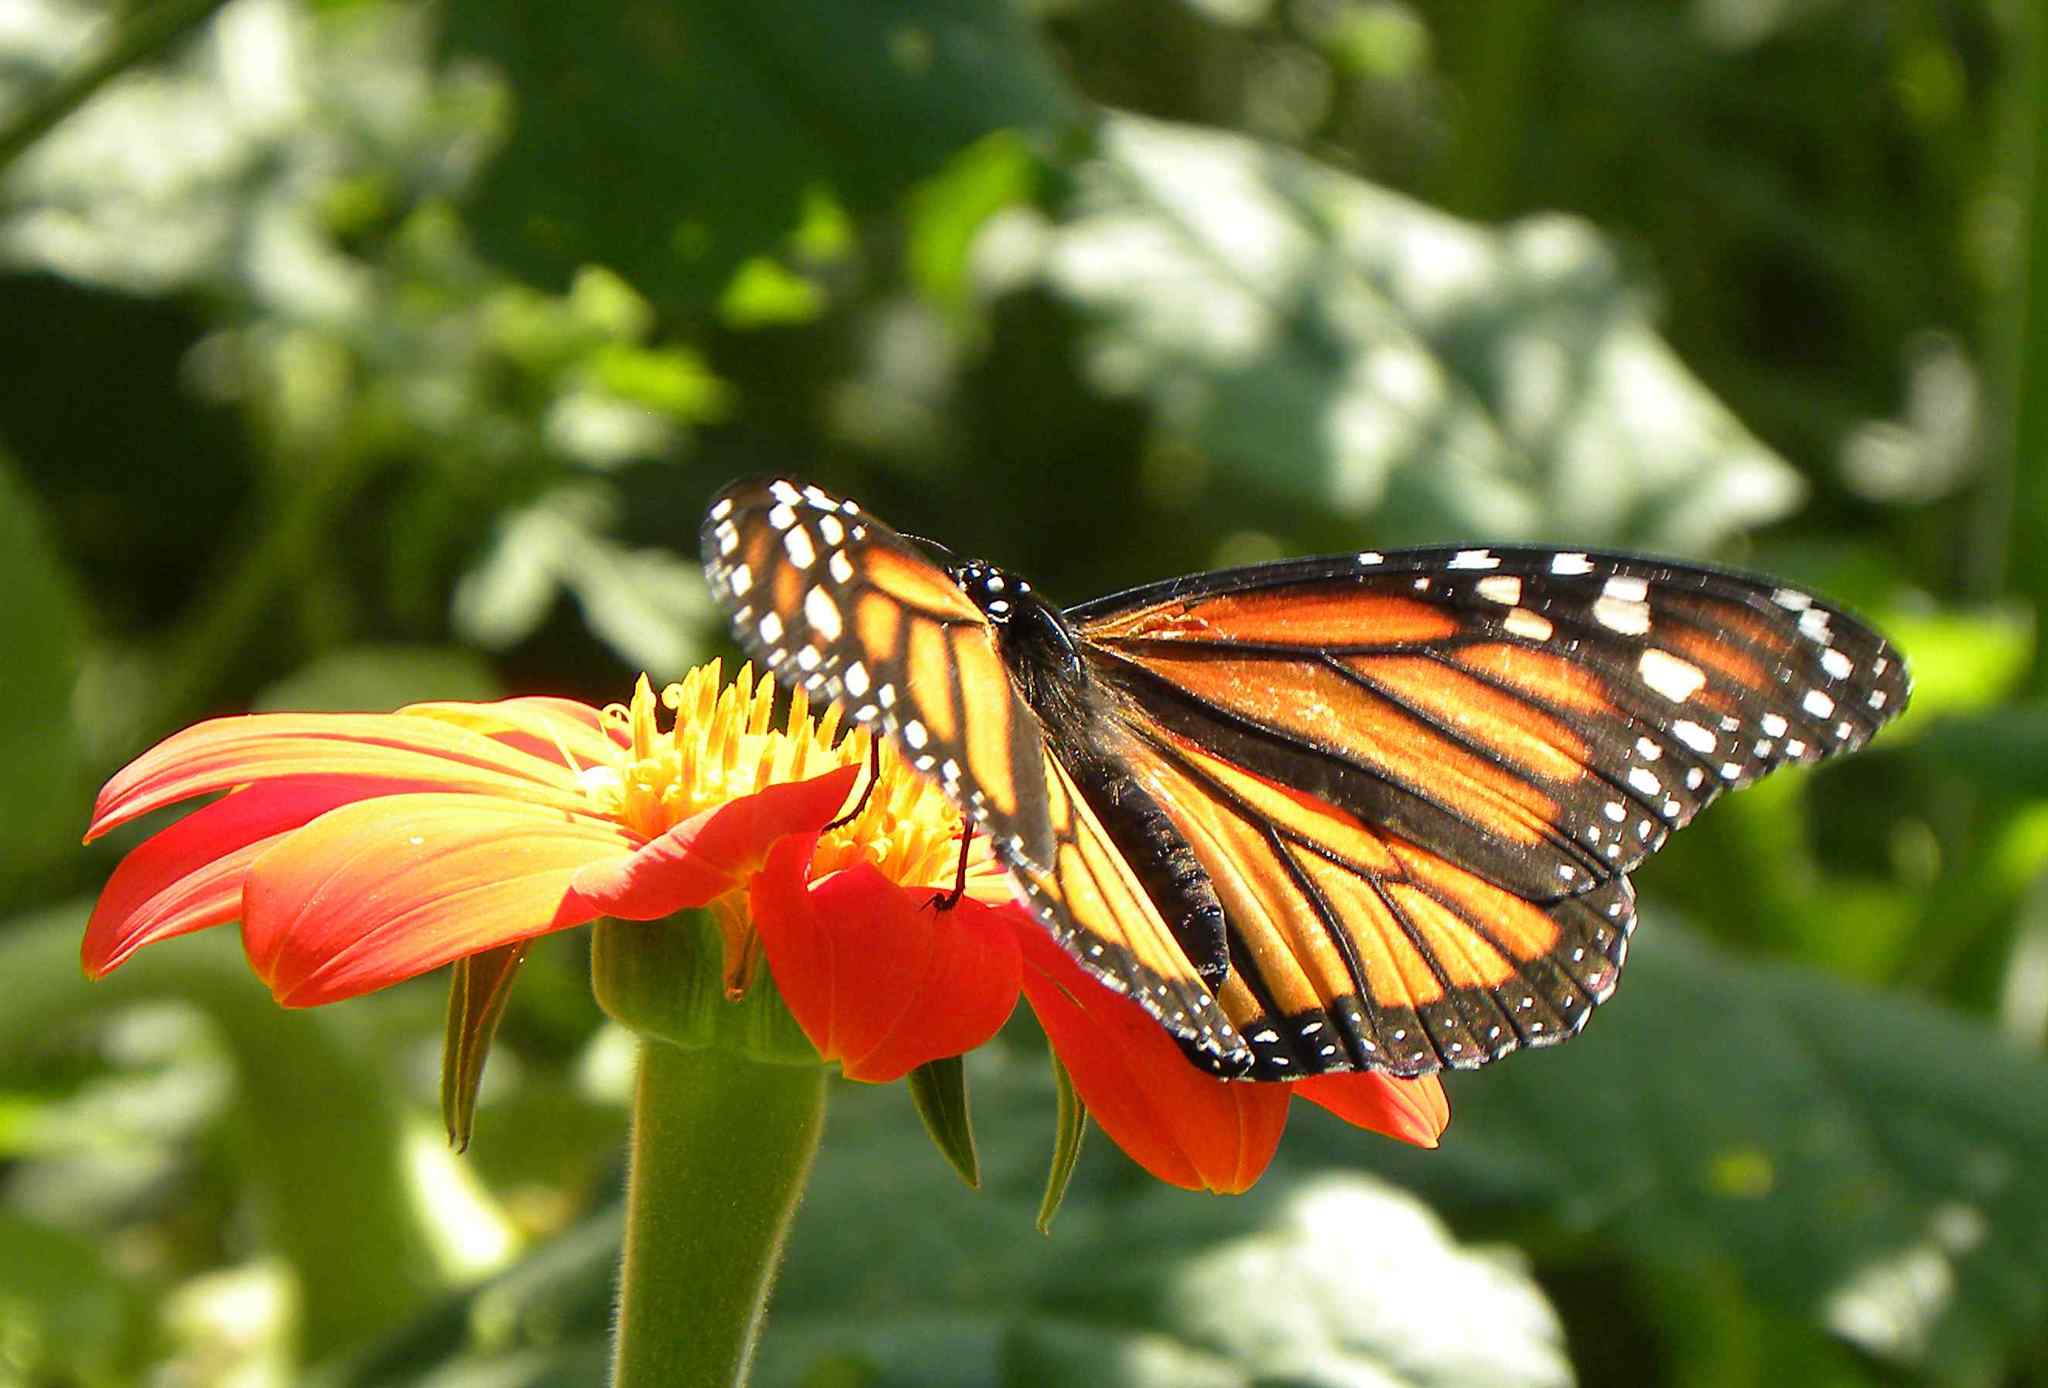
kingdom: Animalia
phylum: Arthropoda
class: Insecta
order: Lepidoptera
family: Nymphalidae
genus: Danaus
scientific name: Danaus plexippus
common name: Monarch
